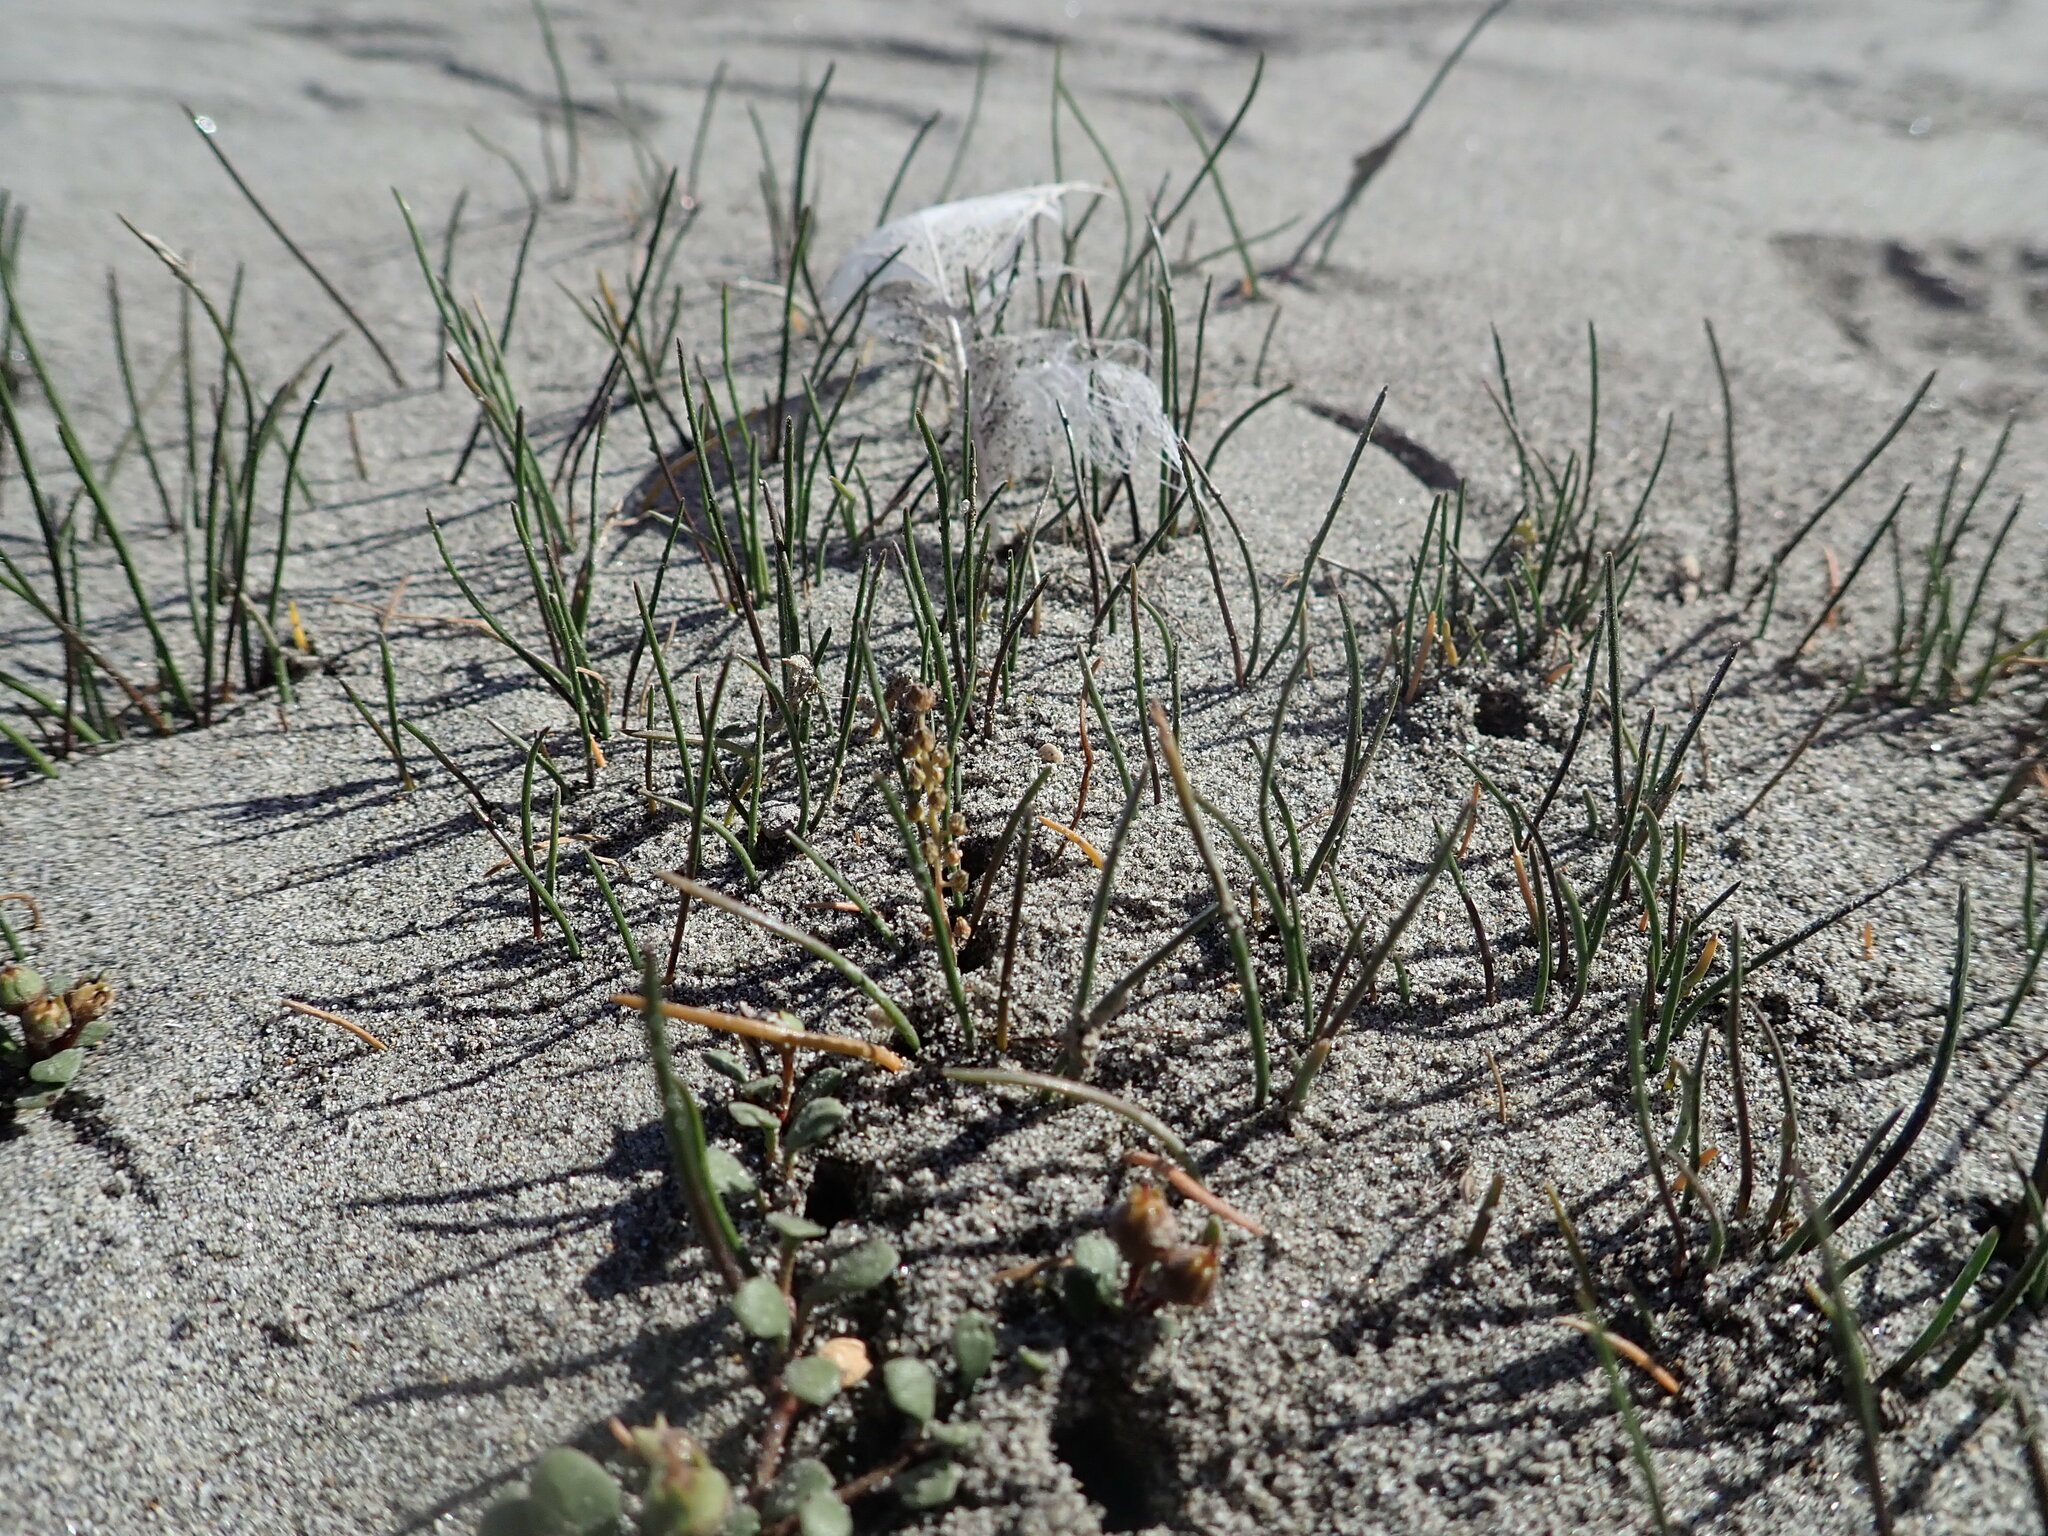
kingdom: Plantae
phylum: Tracheophyta
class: Liliopsida
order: Alismatales
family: Juncaginaceae
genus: Triglochin
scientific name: Triglochin striata
